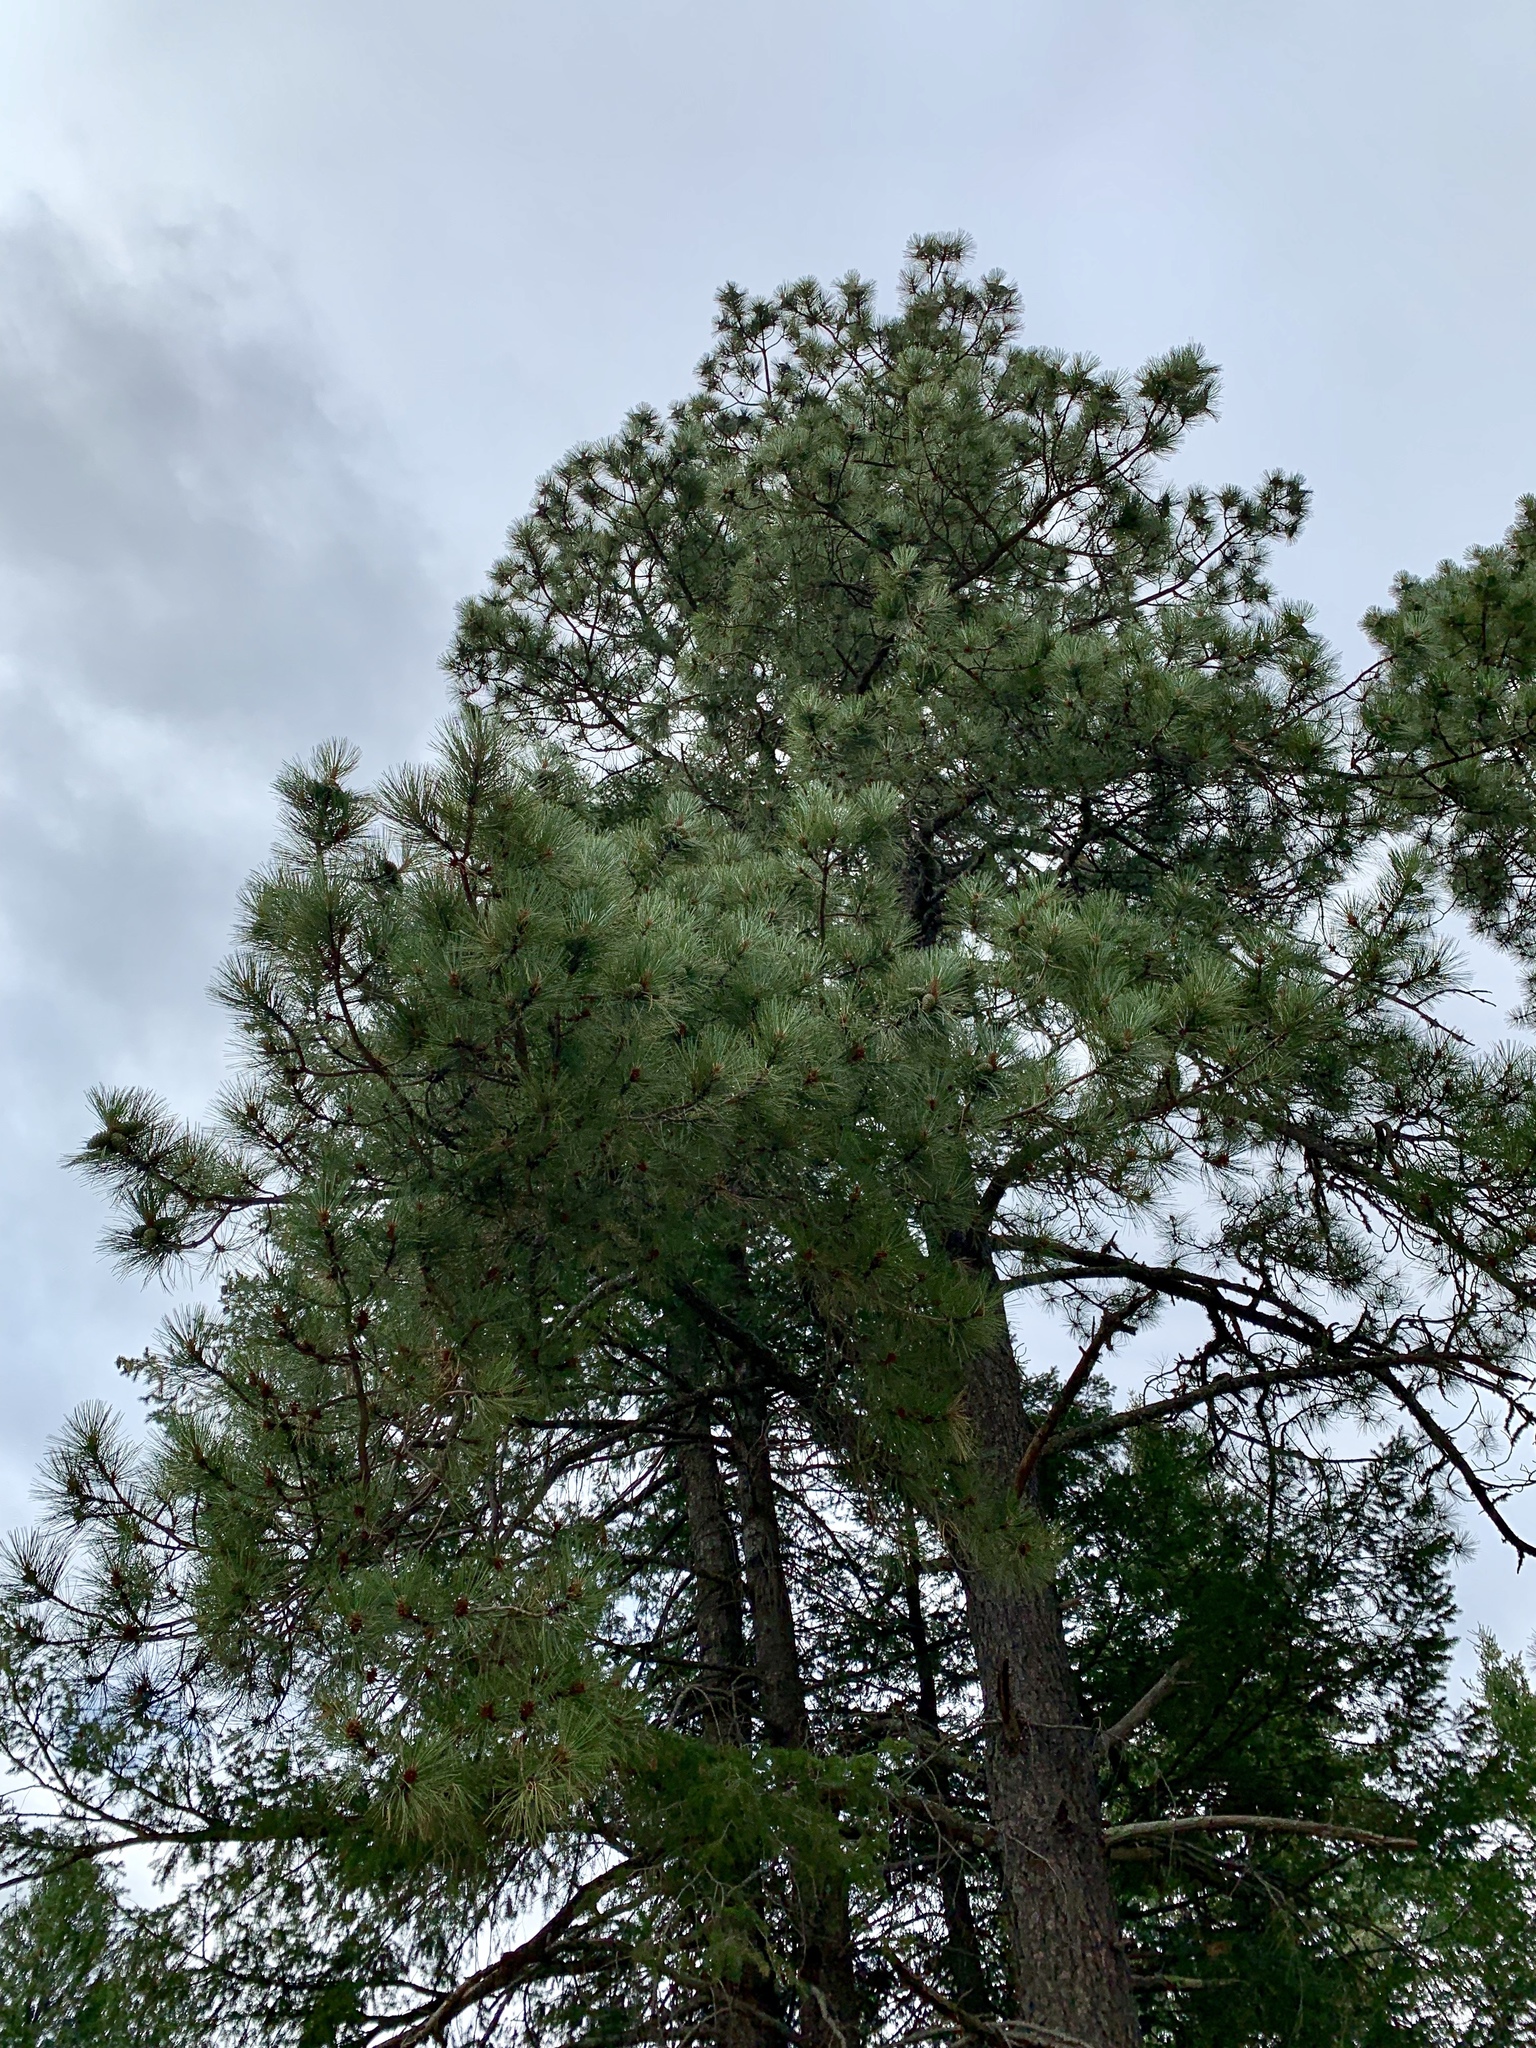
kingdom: Plantae
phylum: Tracheophyta
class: Pinopsida
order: Pinales
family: Pinaceae
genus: Pinus
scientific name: Pinus ponderosa
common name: Western yellow-pine
